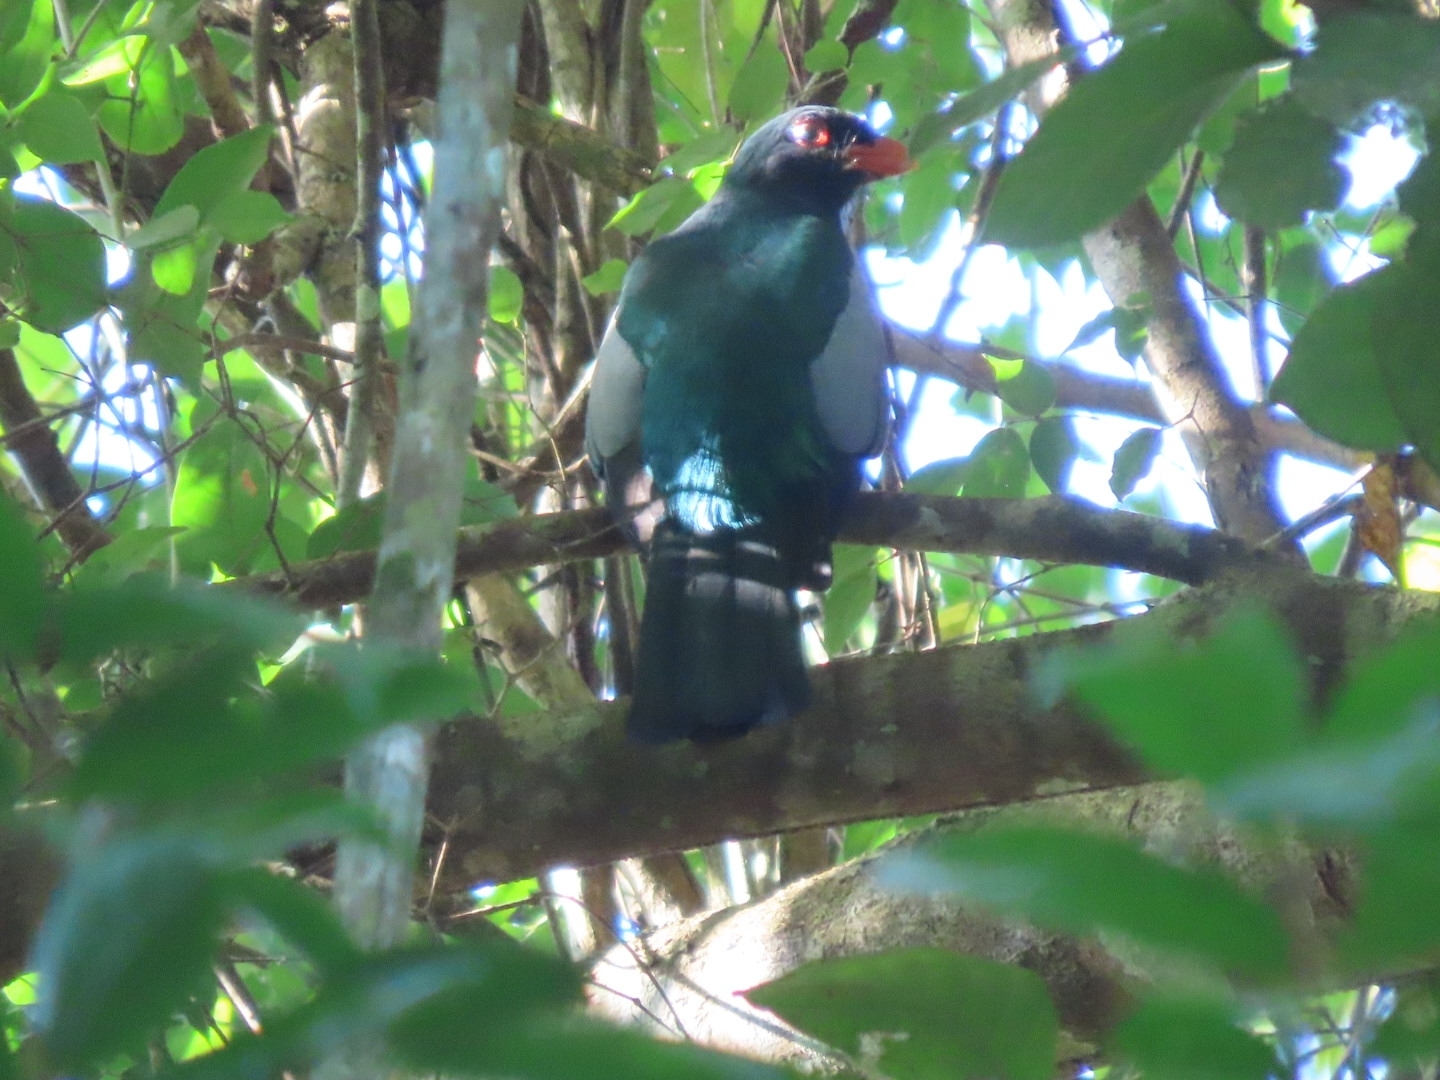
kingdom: Animalia
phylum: Chordata
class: Aves
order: Trogoniformes
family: Trogonidae
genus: Trogon
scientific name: Trogon massena
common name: Slaty-tailed trogon
